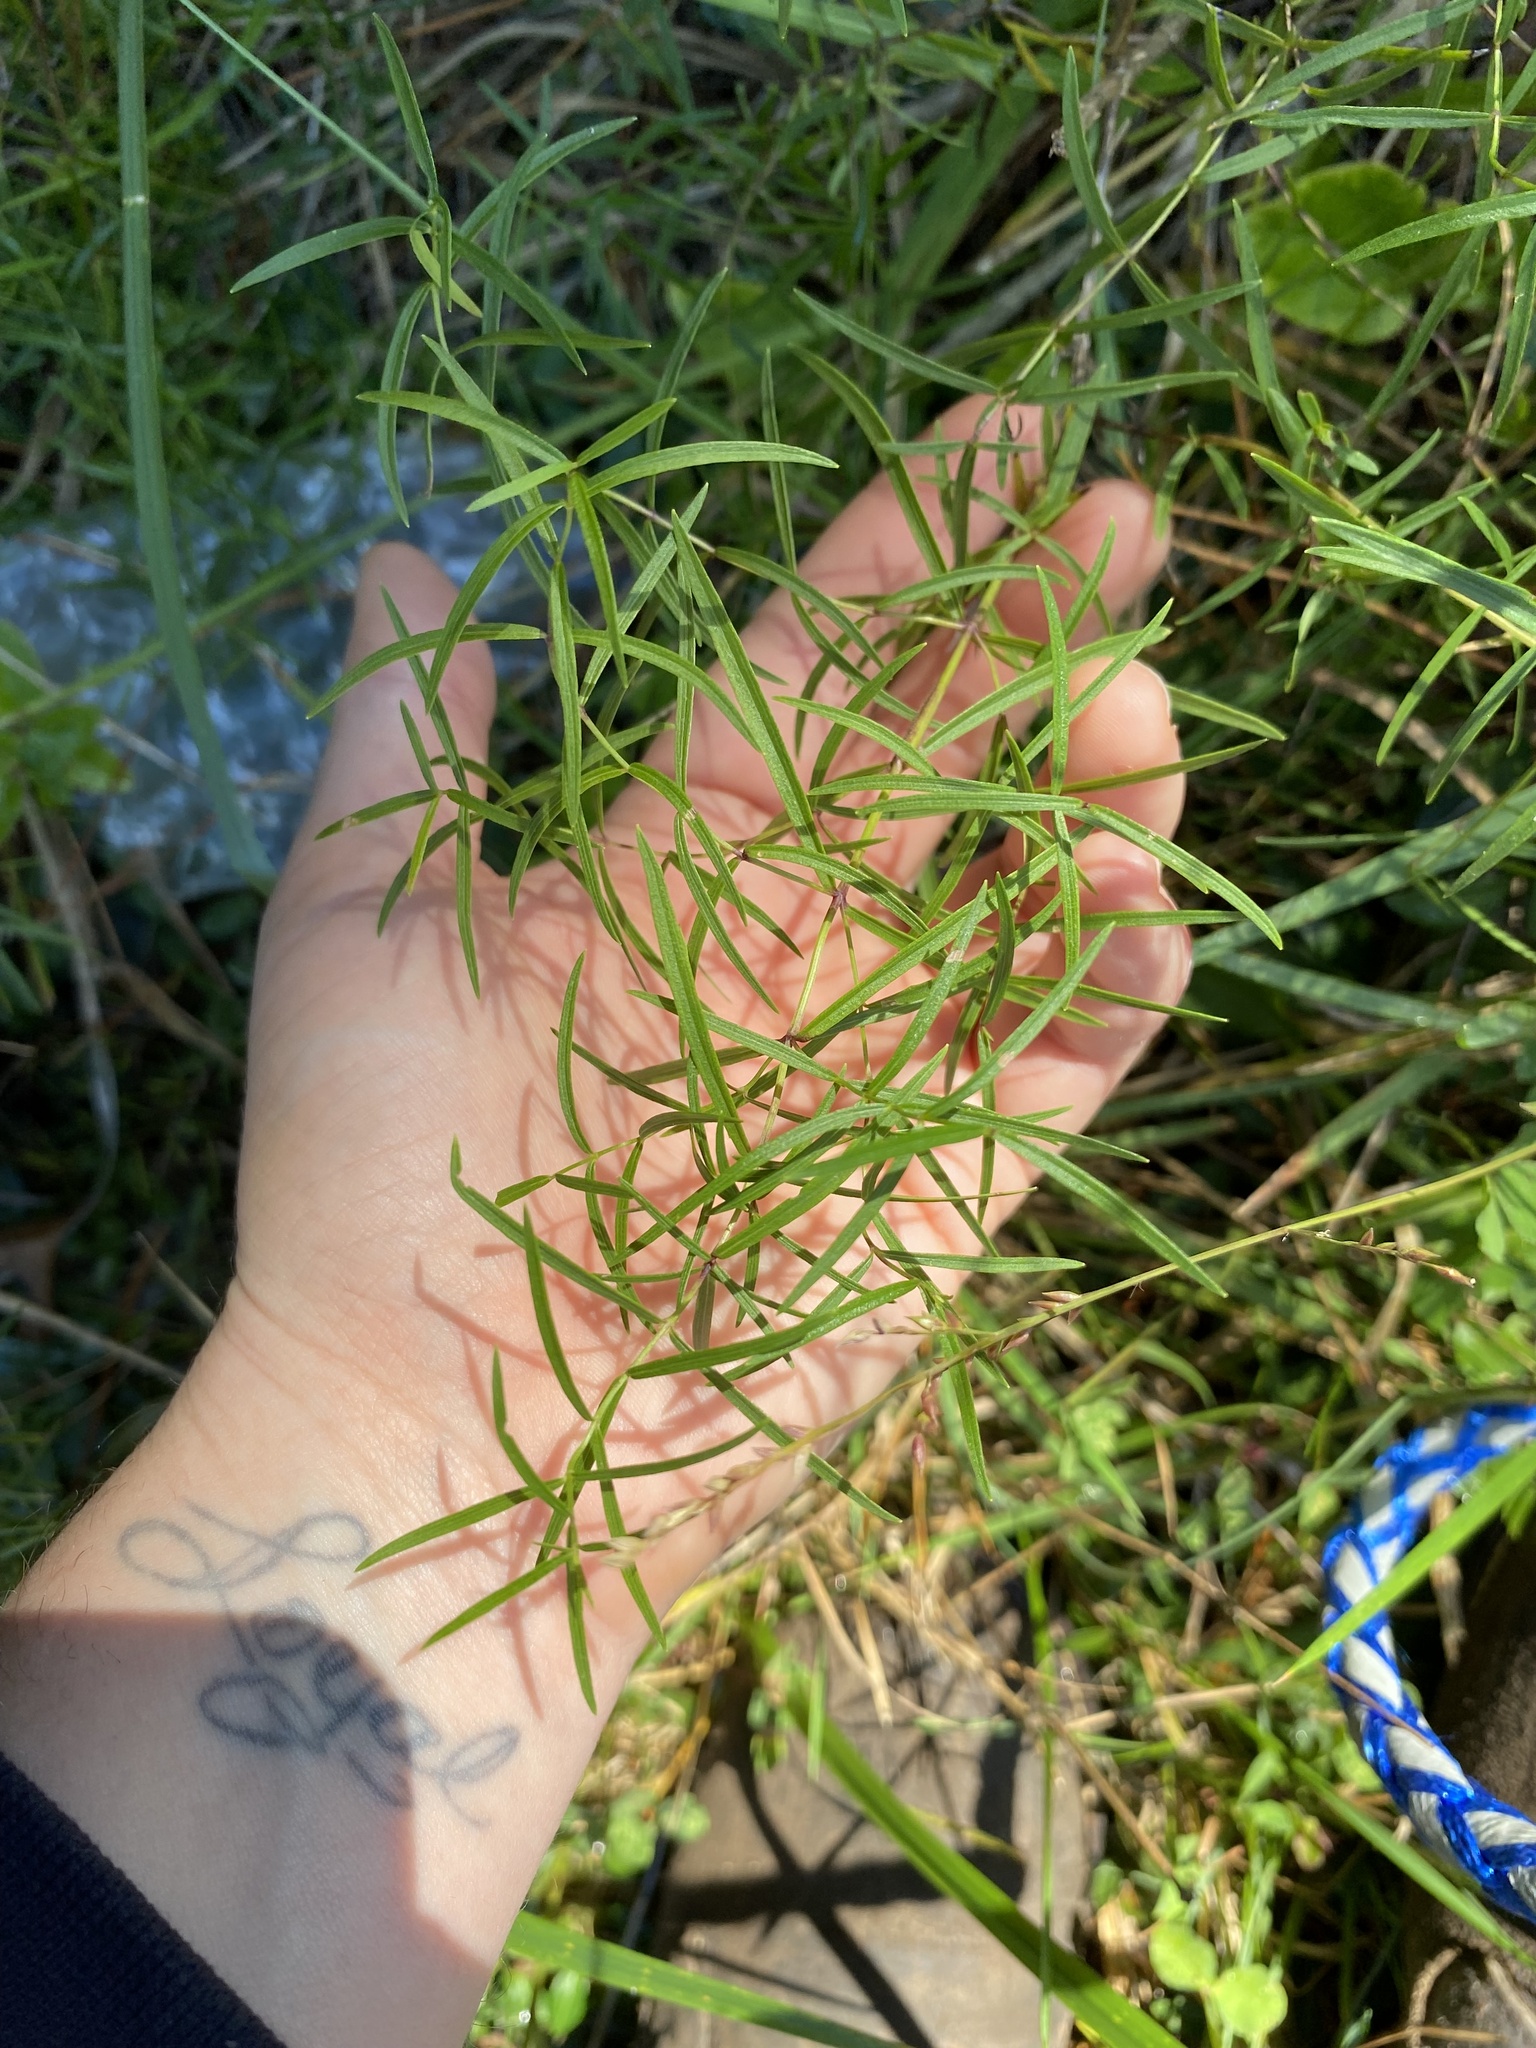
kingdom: Plantae
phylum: Tracheophyta
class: Magnoliopsida
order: Lamiales
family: Lamiaceae
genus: Pycnanthemum
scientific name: Pycnanthemum tenuifolium
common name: Narrow-leaf mountain-mint
